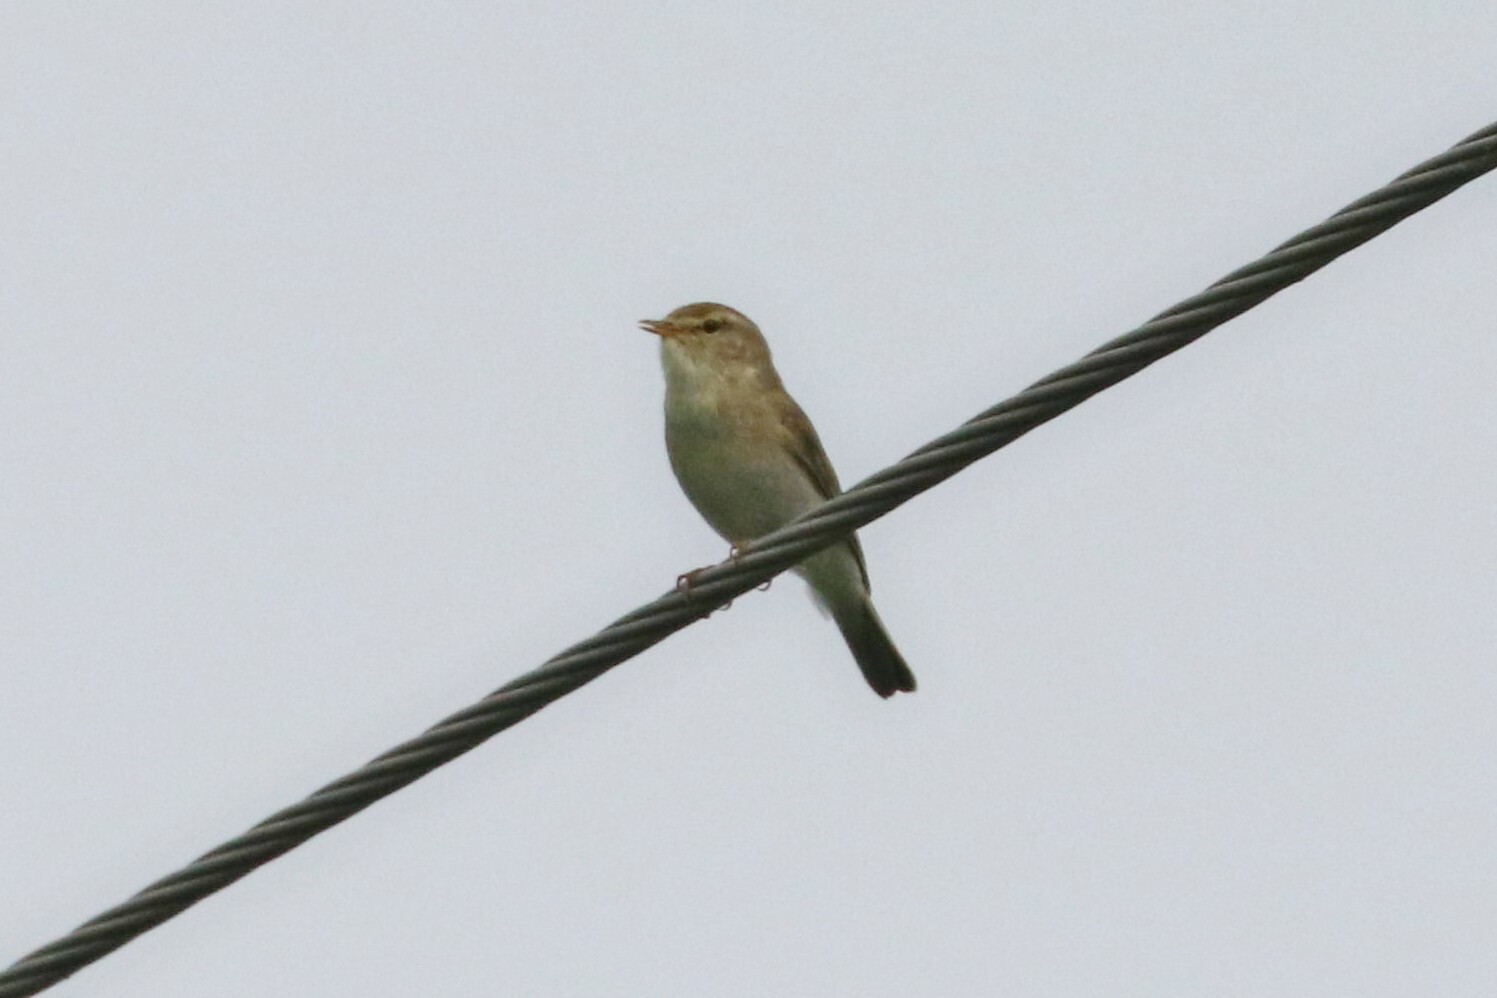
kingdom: Animalia
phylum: Chordata
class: Aves
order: Passeriformes
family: Phylloscopidae
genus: Phylloscopus
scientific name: Phylloscopus trochilus
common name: Willow warbler
